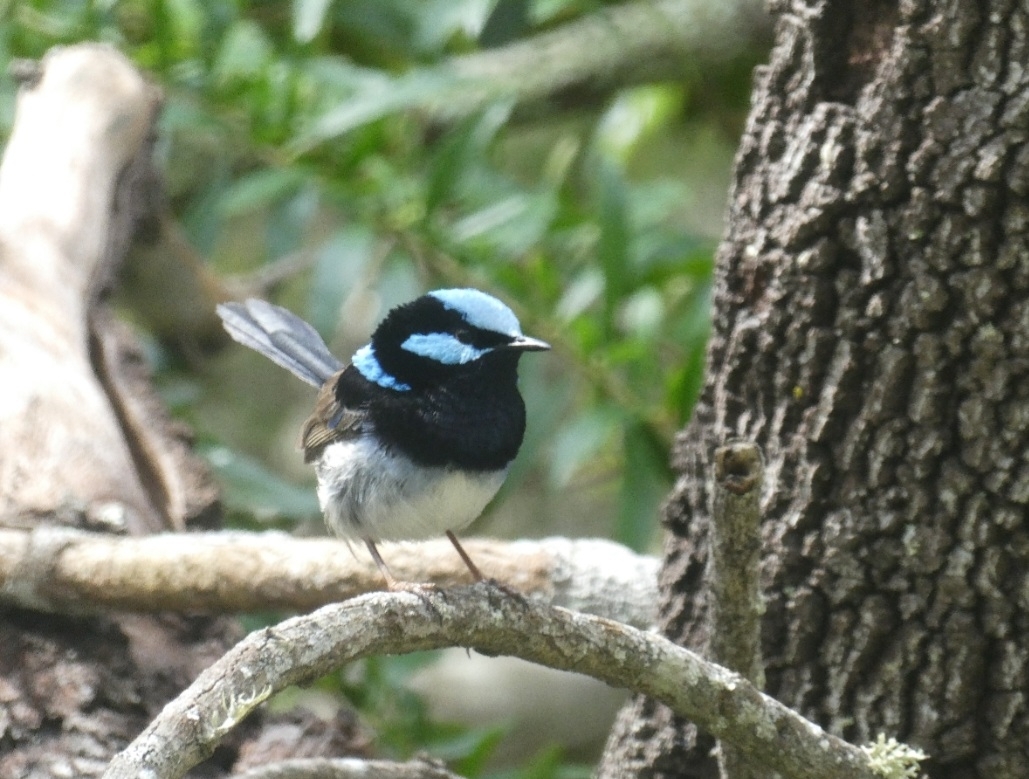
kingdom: Animalia
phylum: Chordata
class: Aves
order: Passeriformes
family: Maluridae
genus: Malurus
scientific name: Malurus cyaneus
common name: Superb fairywren
